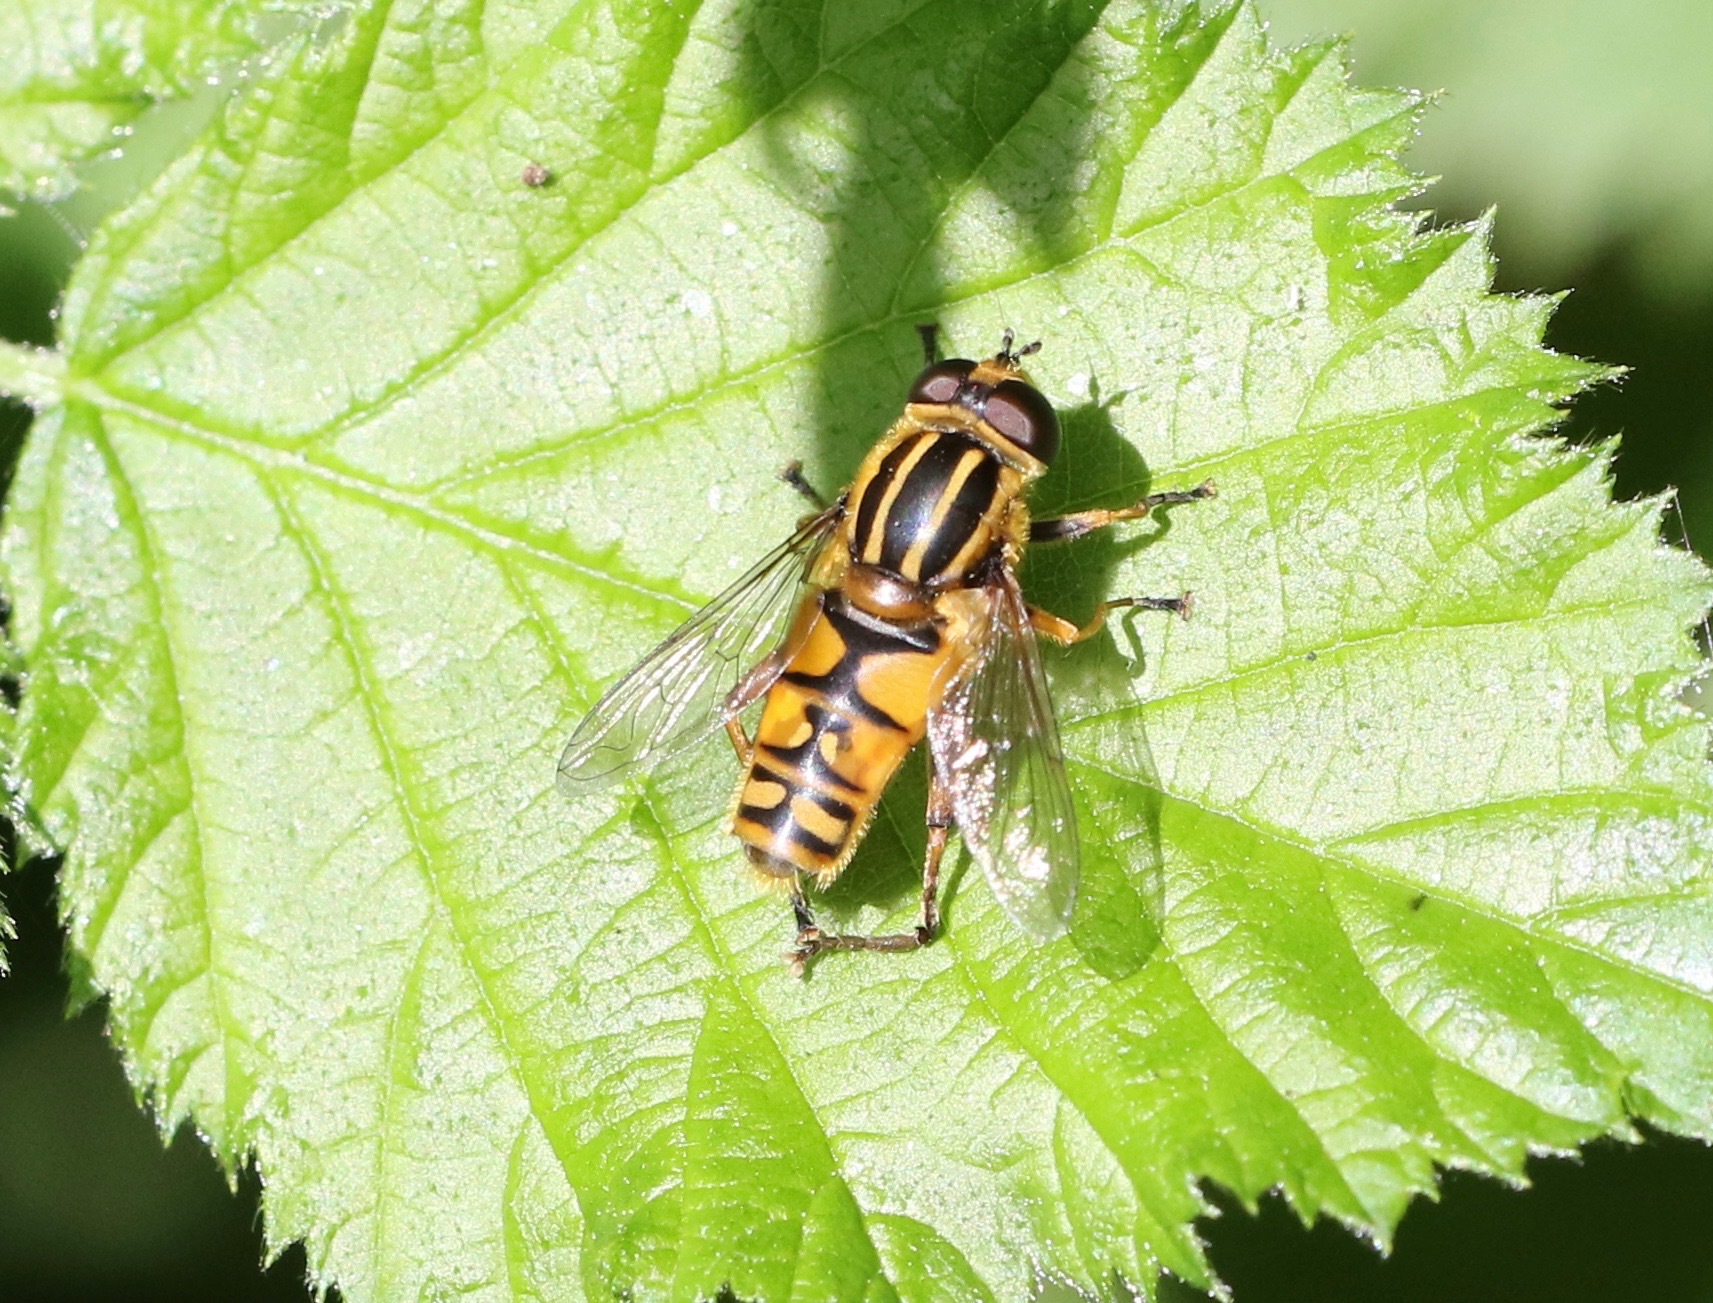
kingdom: Animalia
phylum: Arthropoda
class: Insecta
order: Diptera
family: Syrphidae
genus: Helophilus
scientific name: Helophilus pendulus
